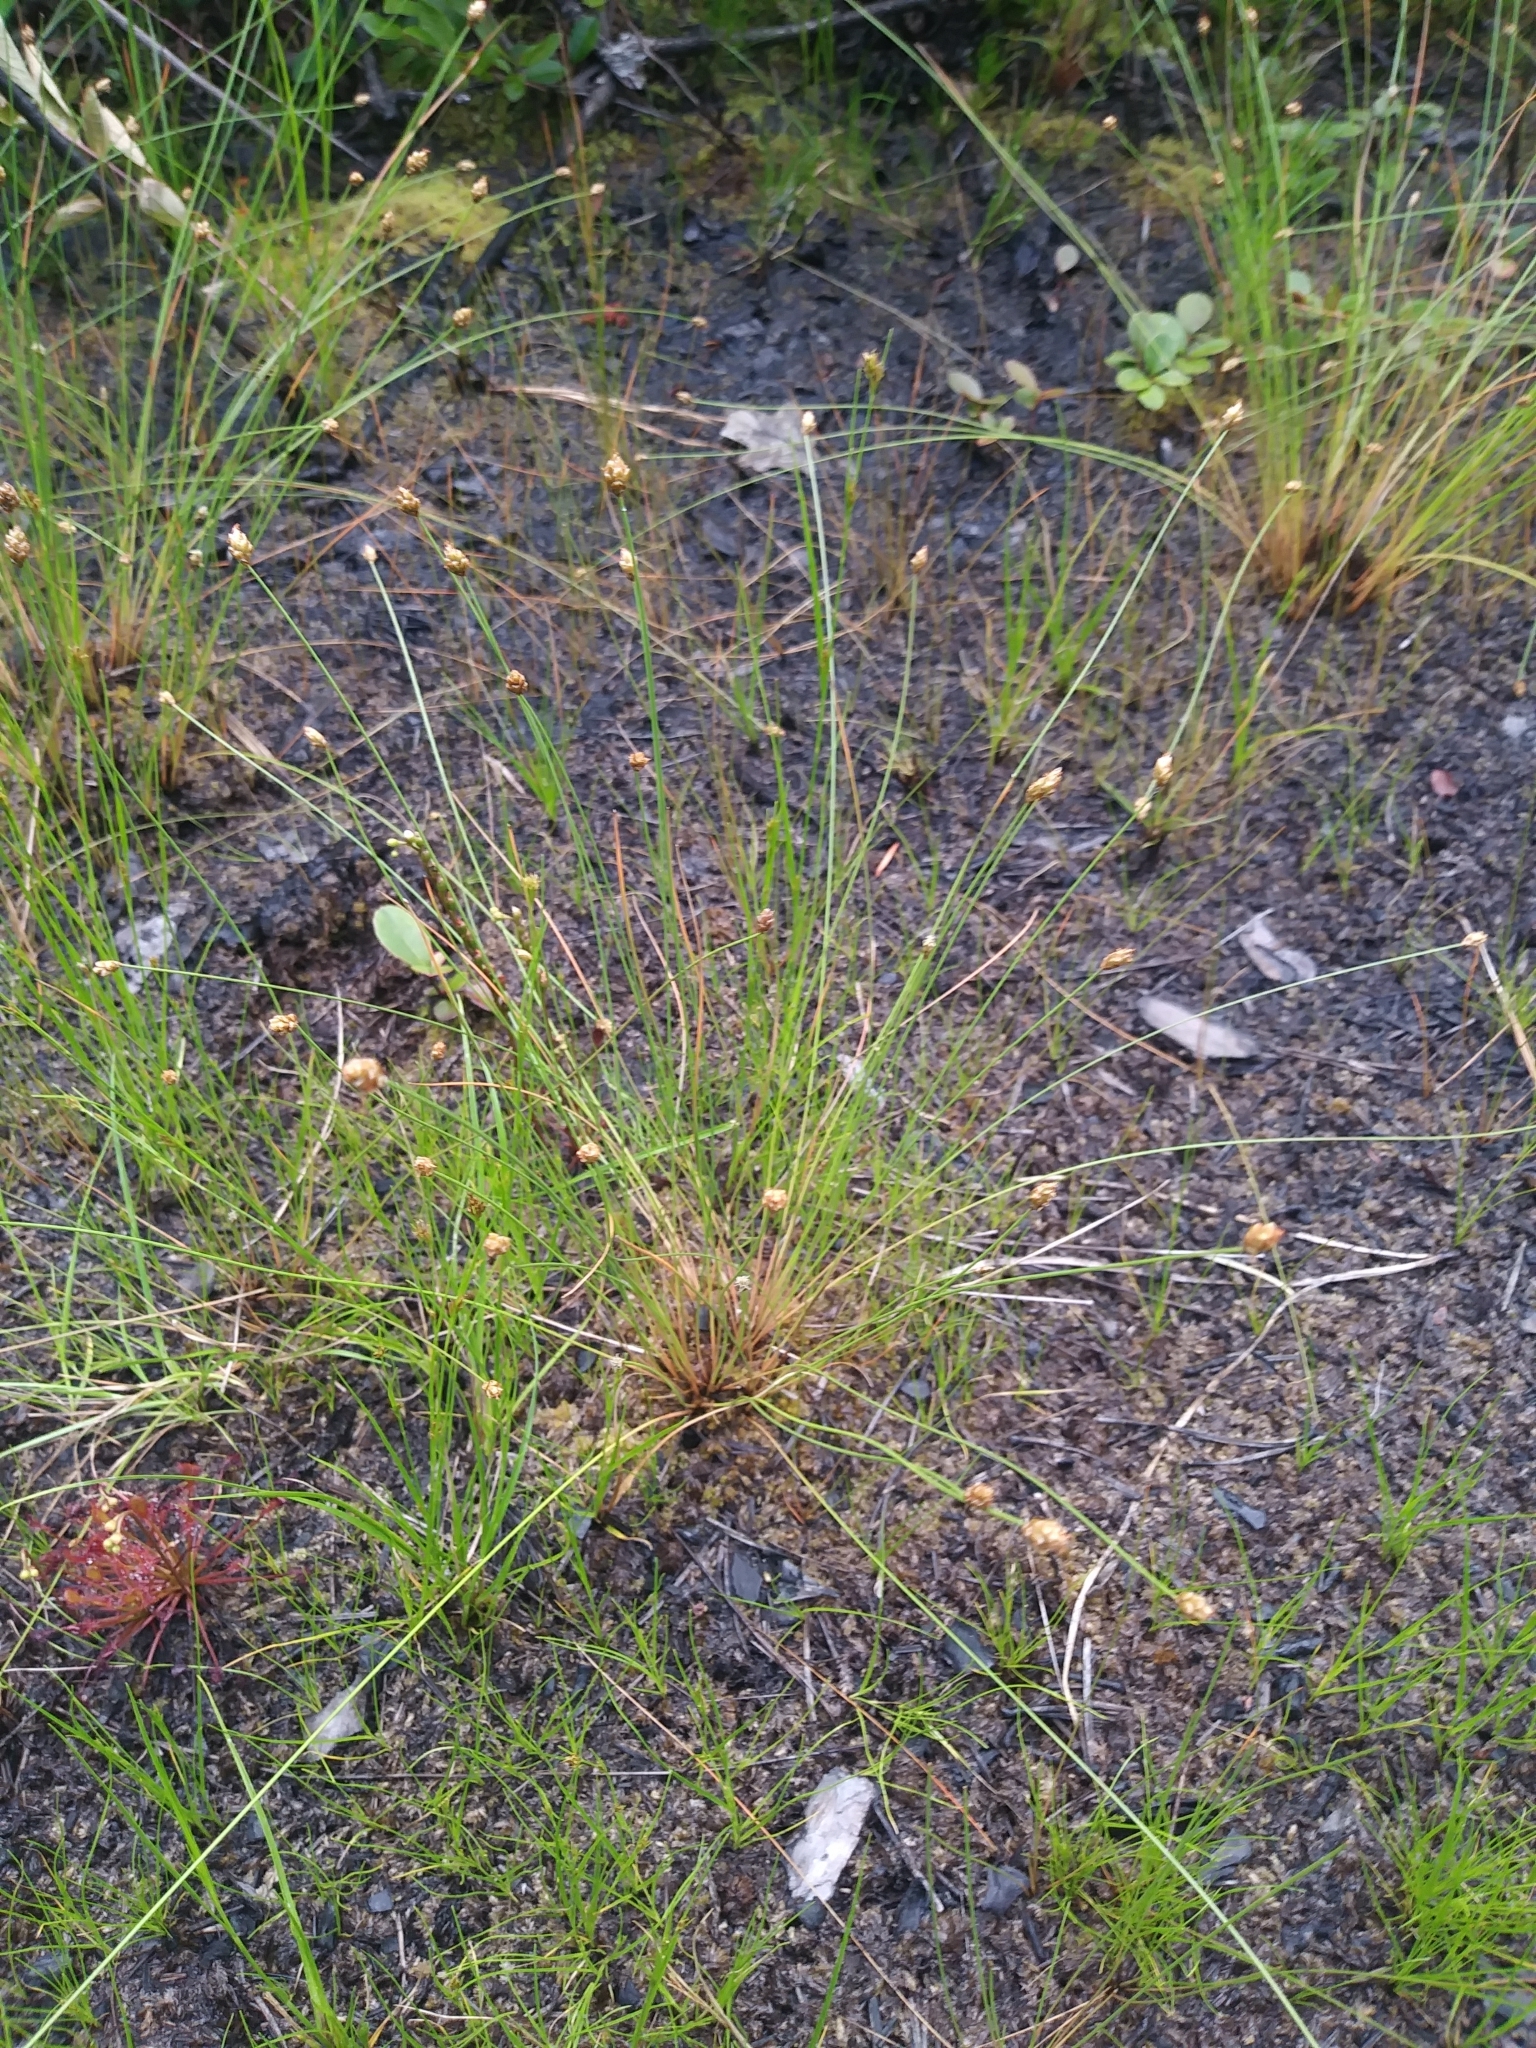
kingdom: Plantae
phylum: Tracheophyta
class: Liliopsida
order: Poales
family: Cyperaceae
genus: Eleocharis
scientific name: Eleocharis tuberculosa
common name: Cone-cup spikerush
